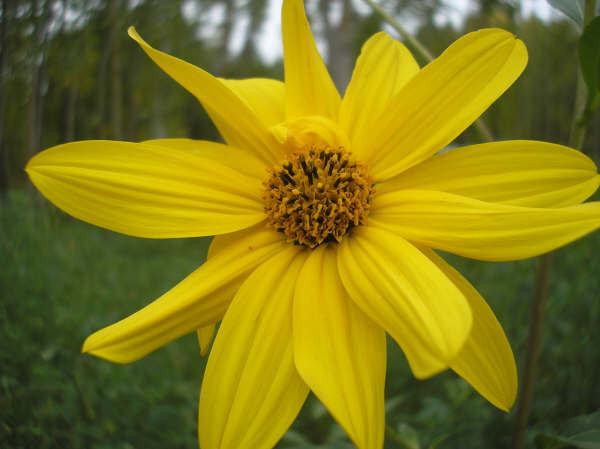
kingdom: Plantae
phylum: Tracheophyta
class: Magnoliopsida
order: Asterales
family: Asteraceae
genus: Helianthus
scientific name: Helianthus tuberosus
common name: Jerusalem artichoke
